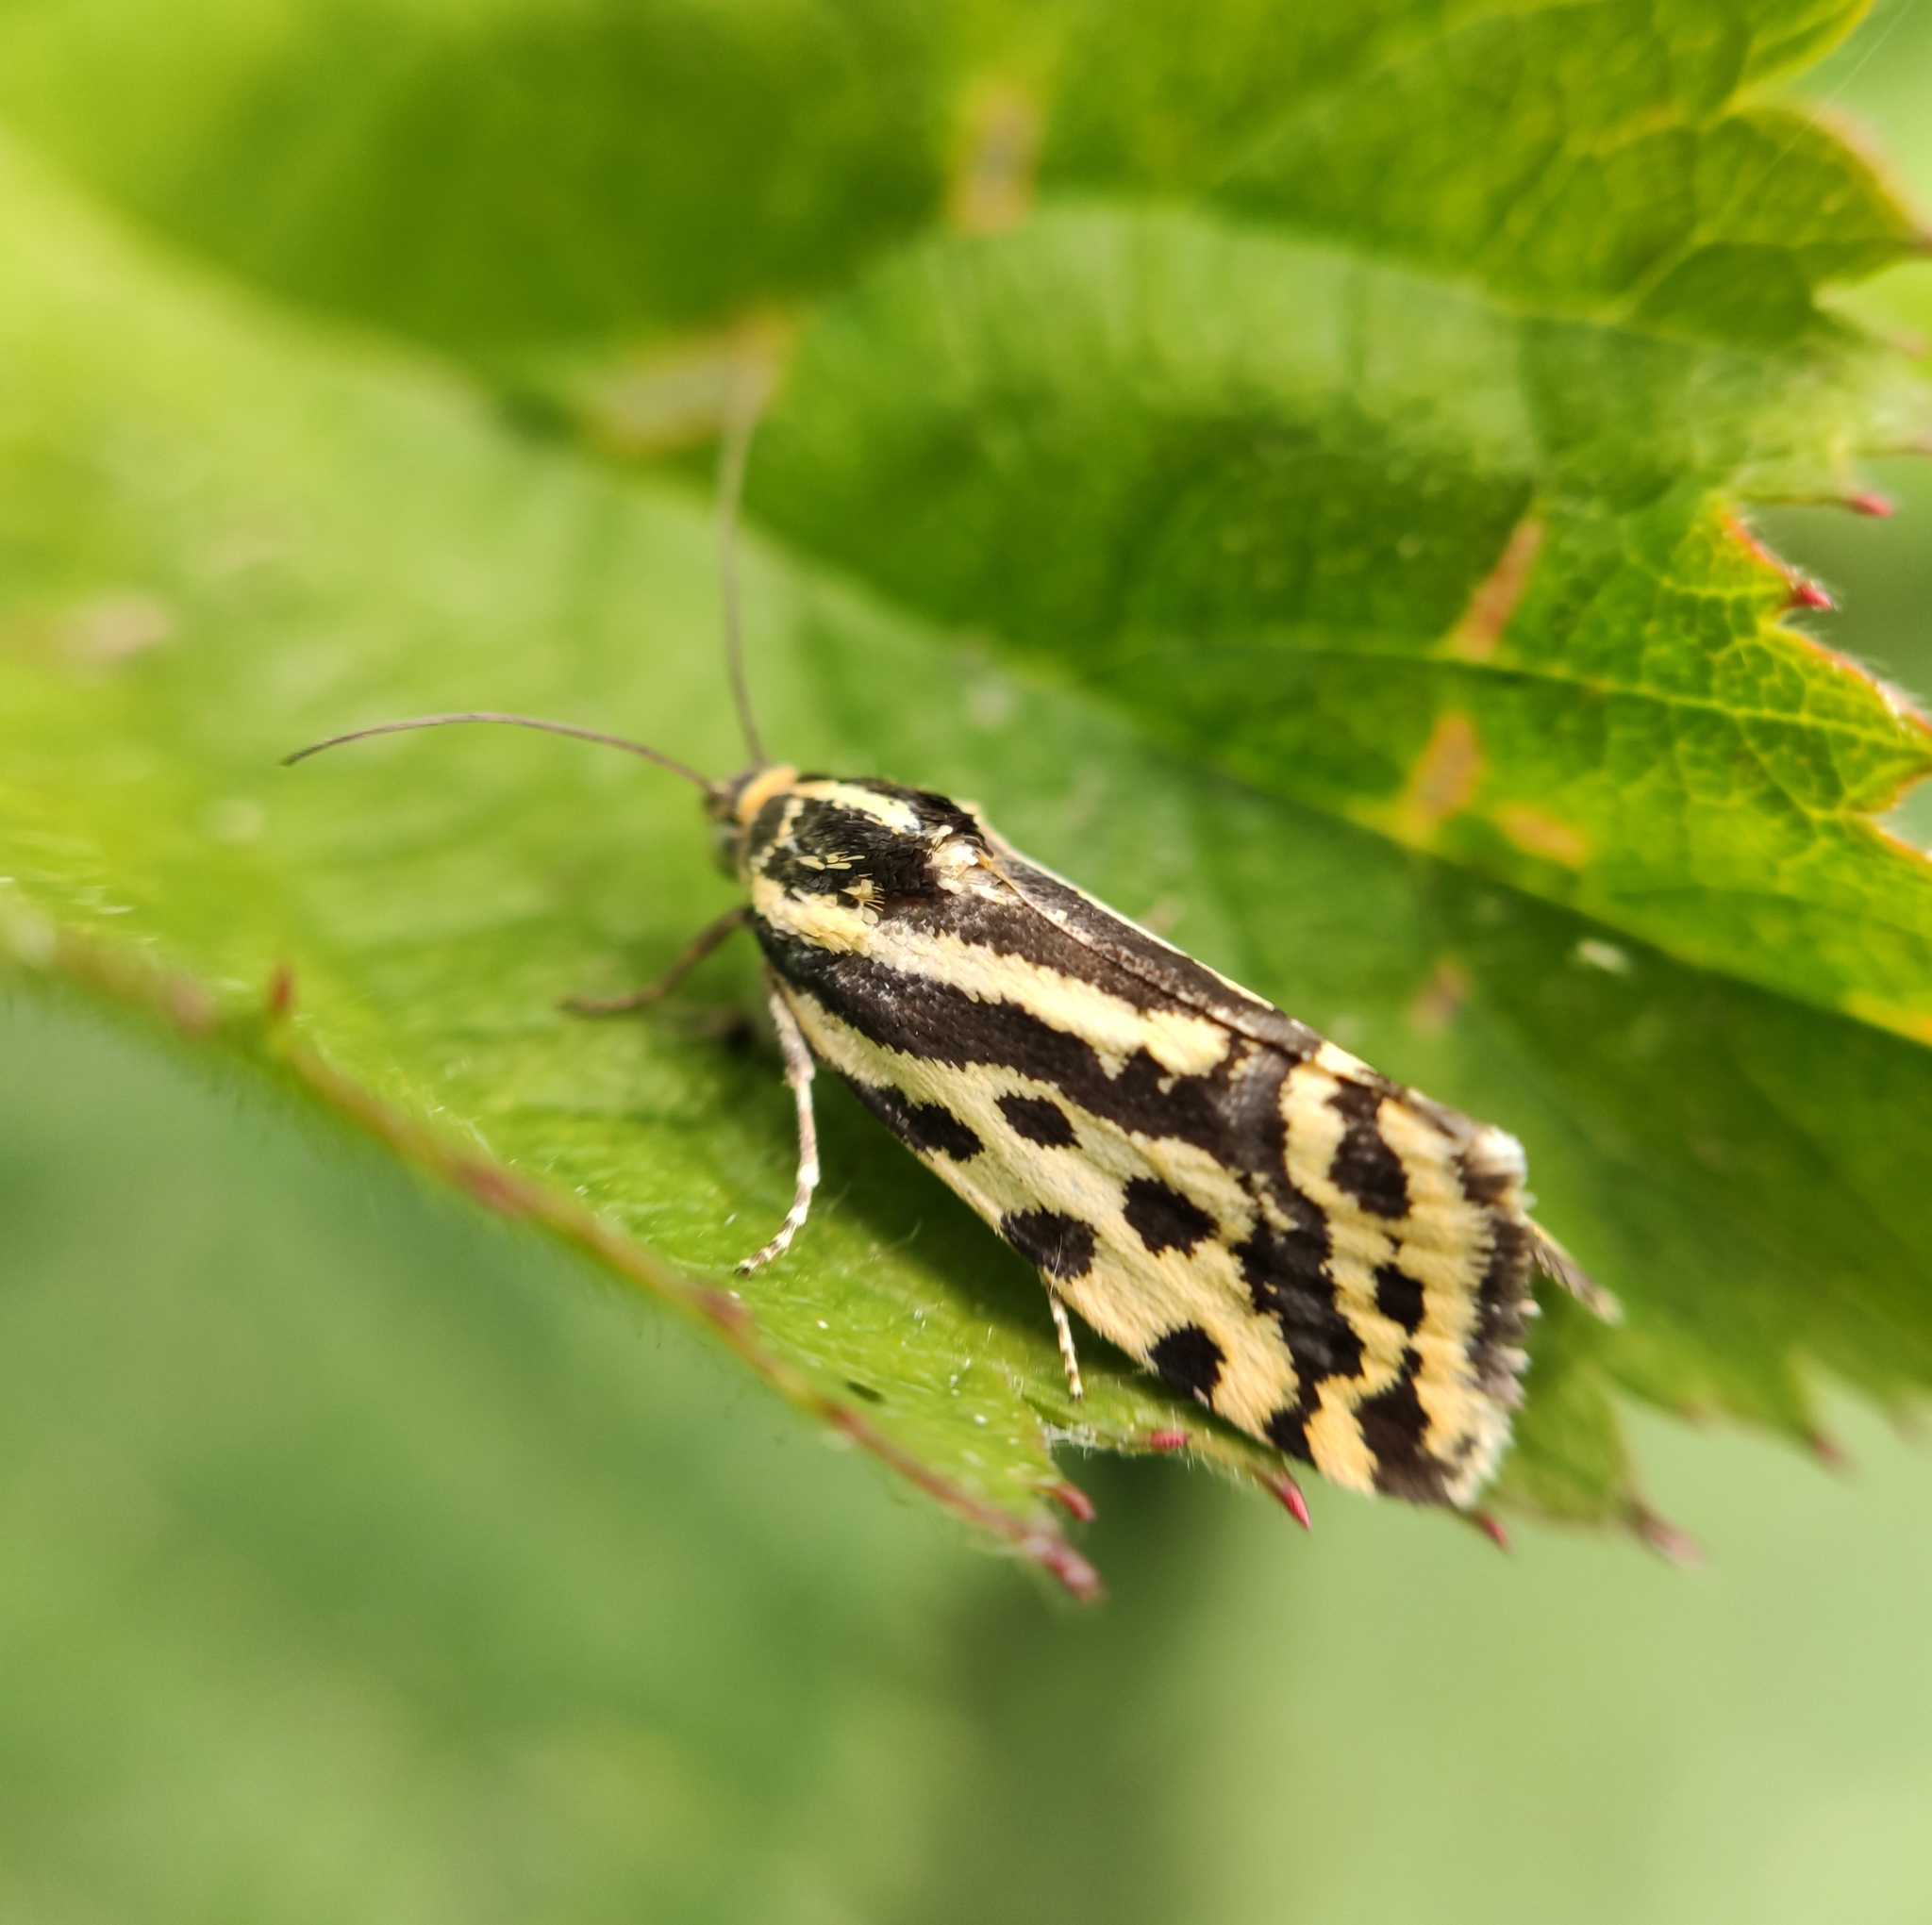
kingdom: Animalia
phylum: Arthropoda
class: Insecta
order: Lepidoptera
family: Noctuidae
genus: Acontia
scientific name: Acontia trabealis
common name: Spotted sulphur
